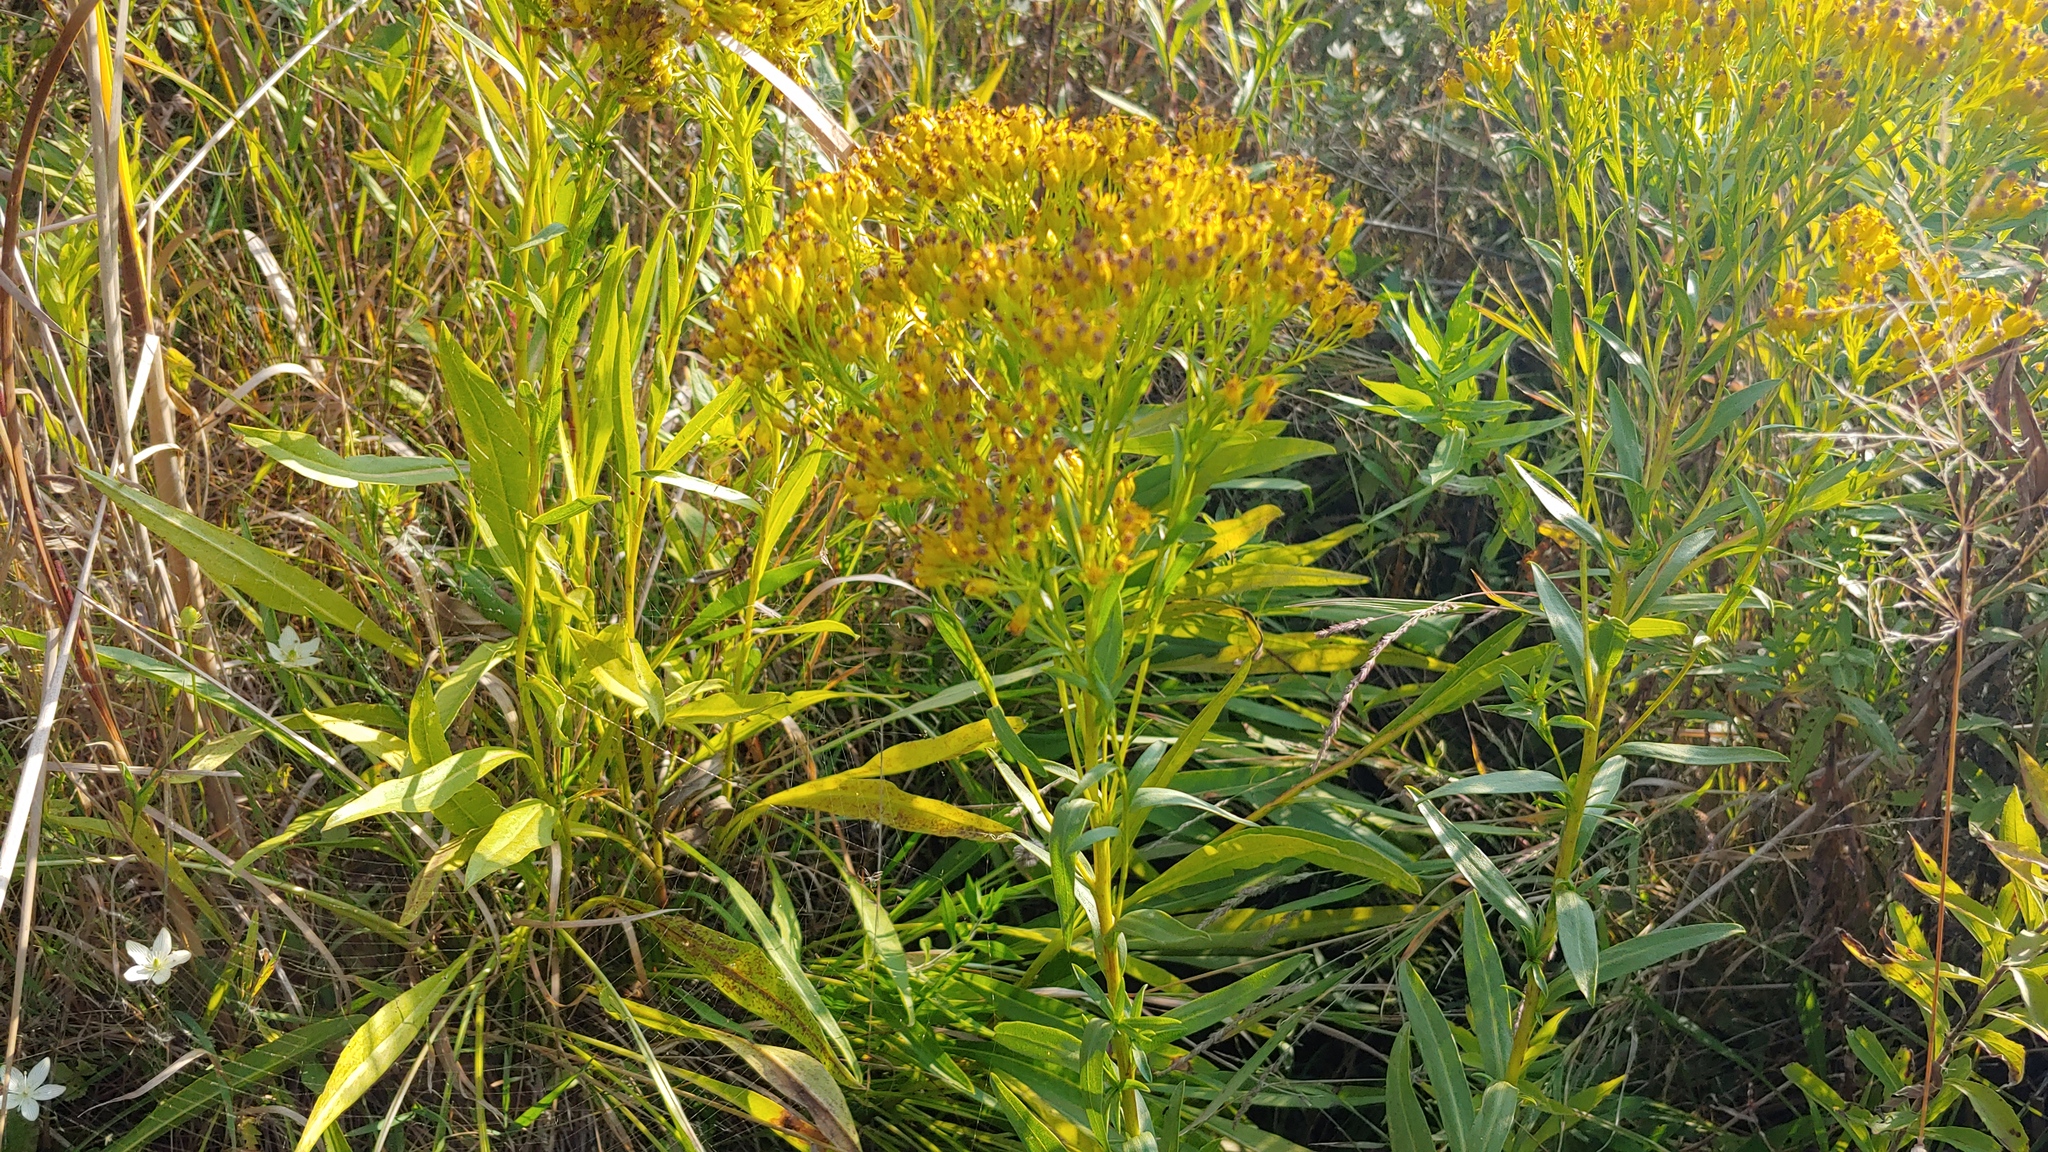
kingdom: Plantae
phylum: Tracheophyta
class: Magnoliopsida
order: Asterales
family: Asteraceae
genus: Solidago
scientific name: Solidago ohioensis
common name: Ohio goldenrod
